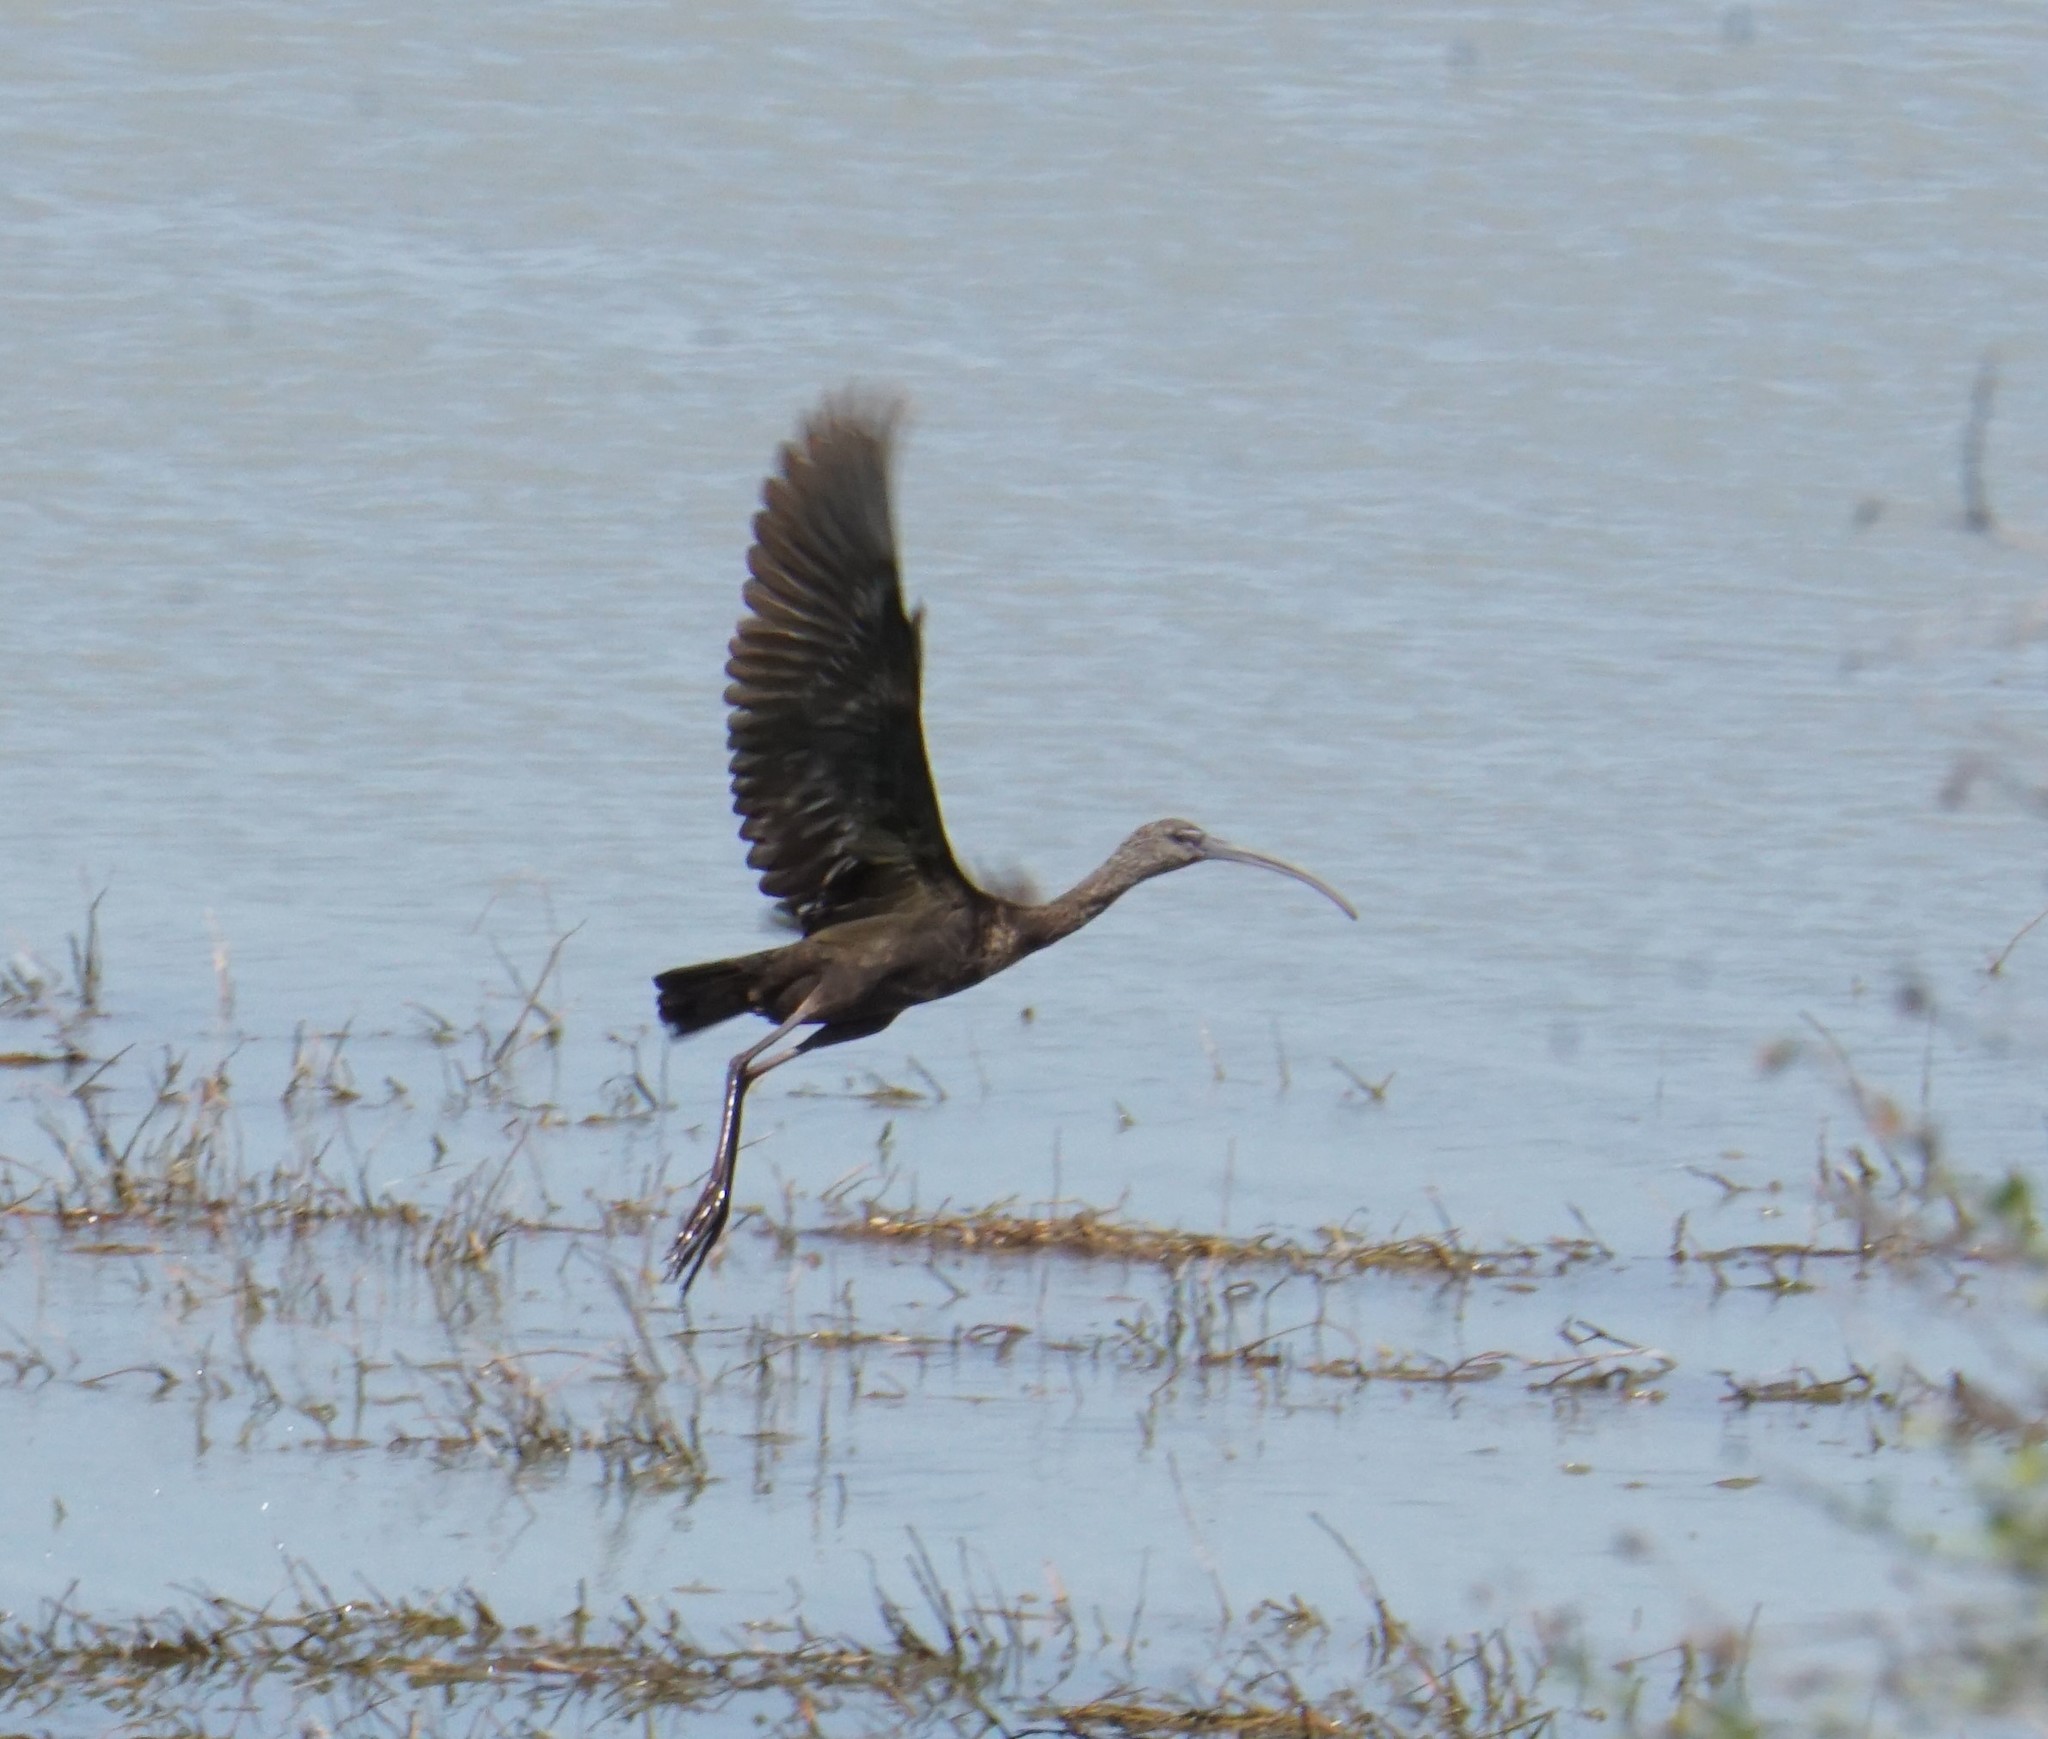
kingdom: Animalia
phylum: Chordata
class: Aves
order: Pelecaniformes
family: Threskiornithidae
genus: Plegadis
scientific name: Plegadis falcinellus
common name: Glossy ibis
